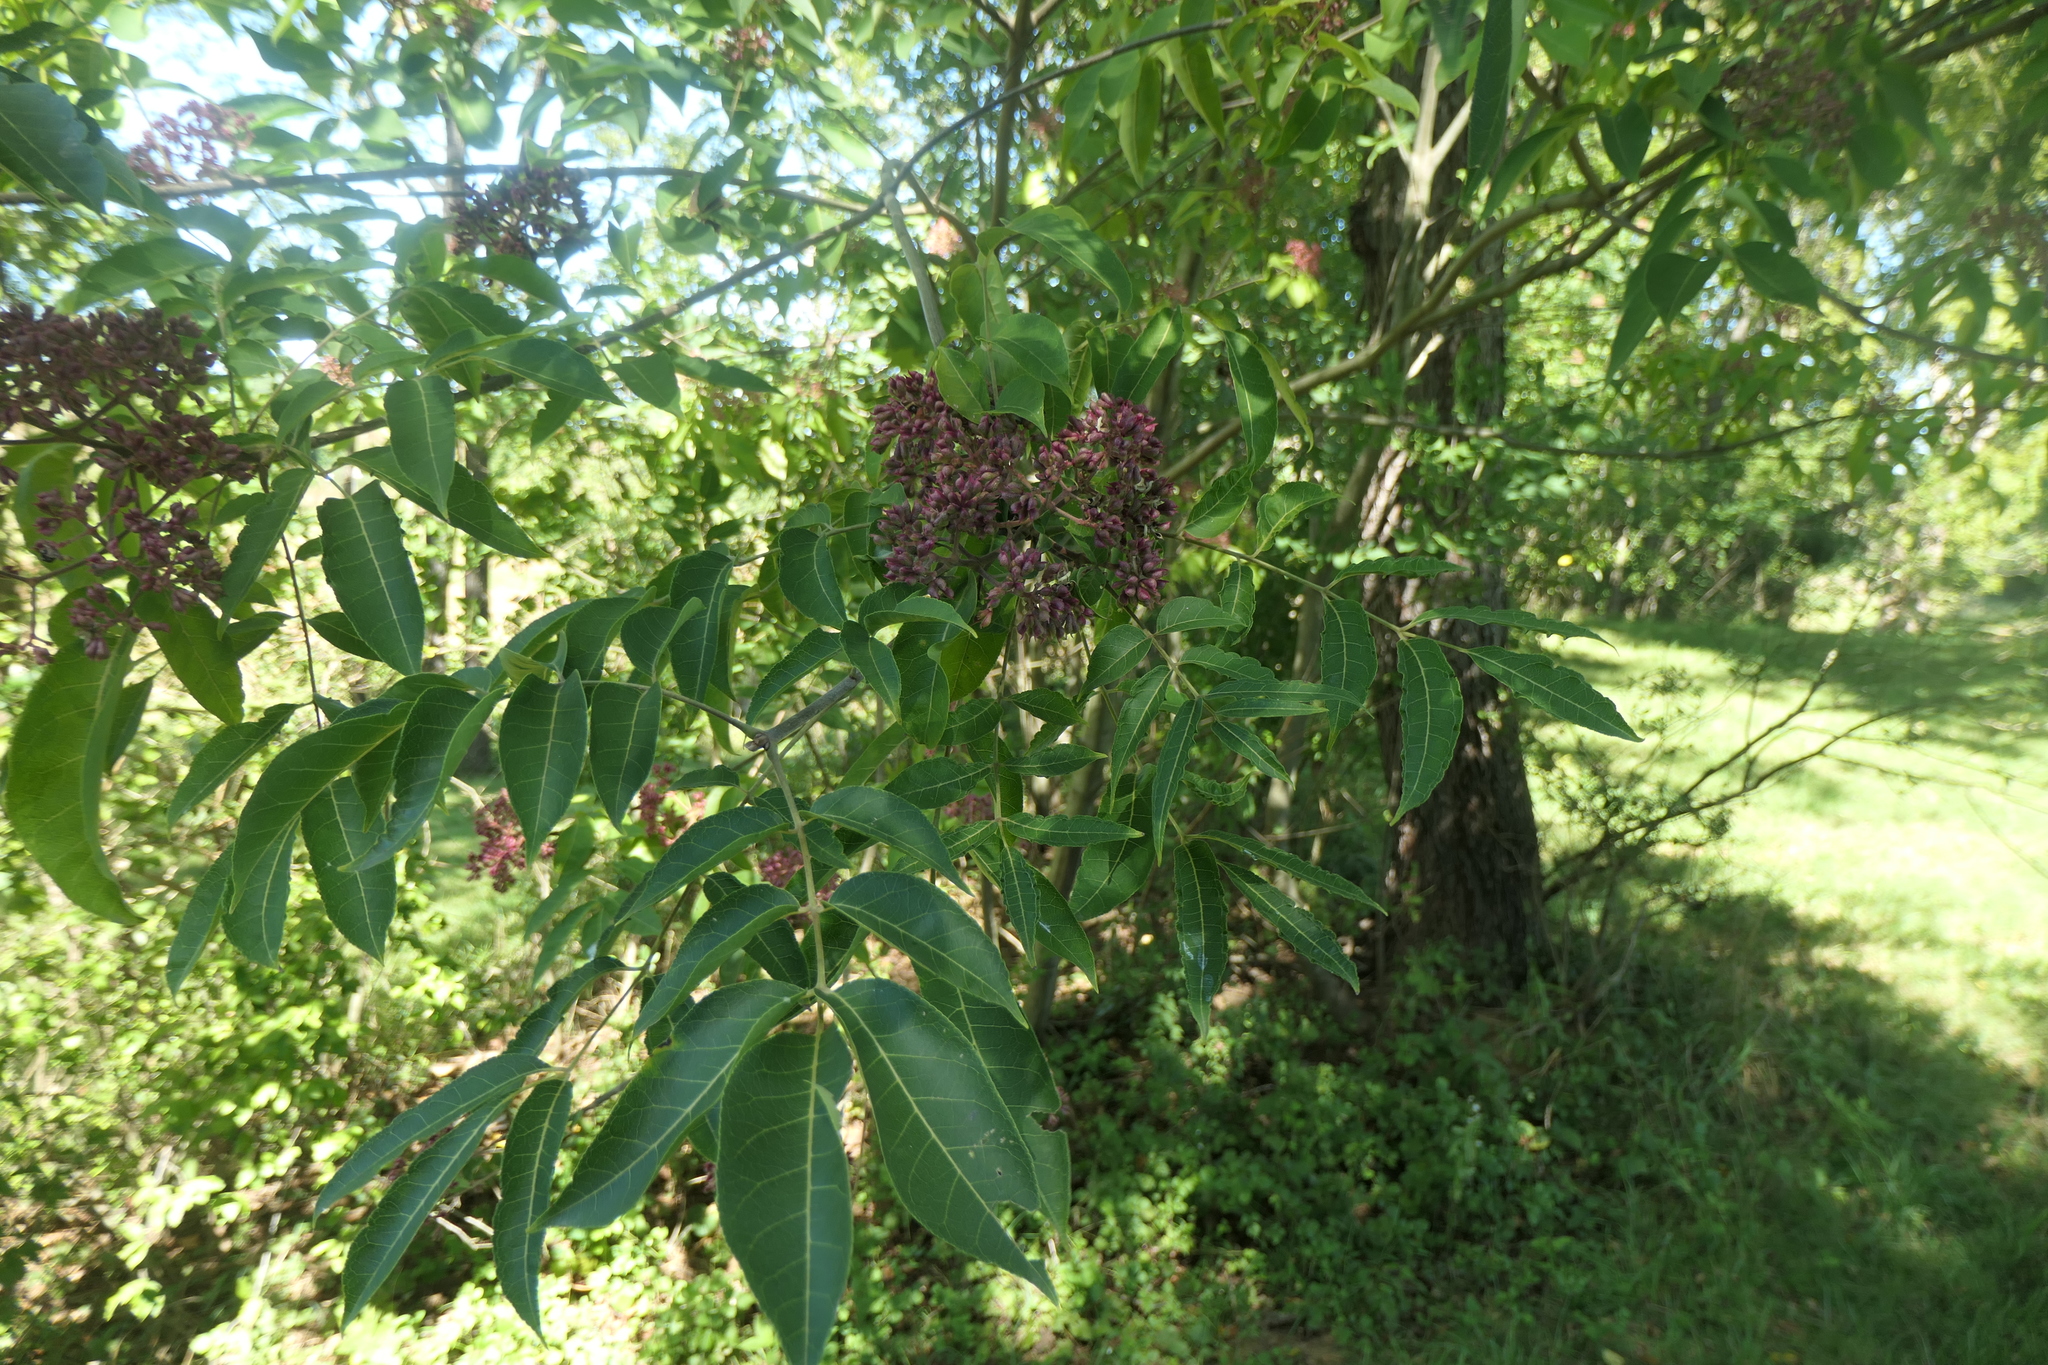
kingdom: Plantae
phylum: Tracheophyta
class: Magnoliopsida
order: Sapindales
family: Rutaceae
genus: Tetradium
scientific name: Tetradium daniellii
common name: Bee-bee tree
